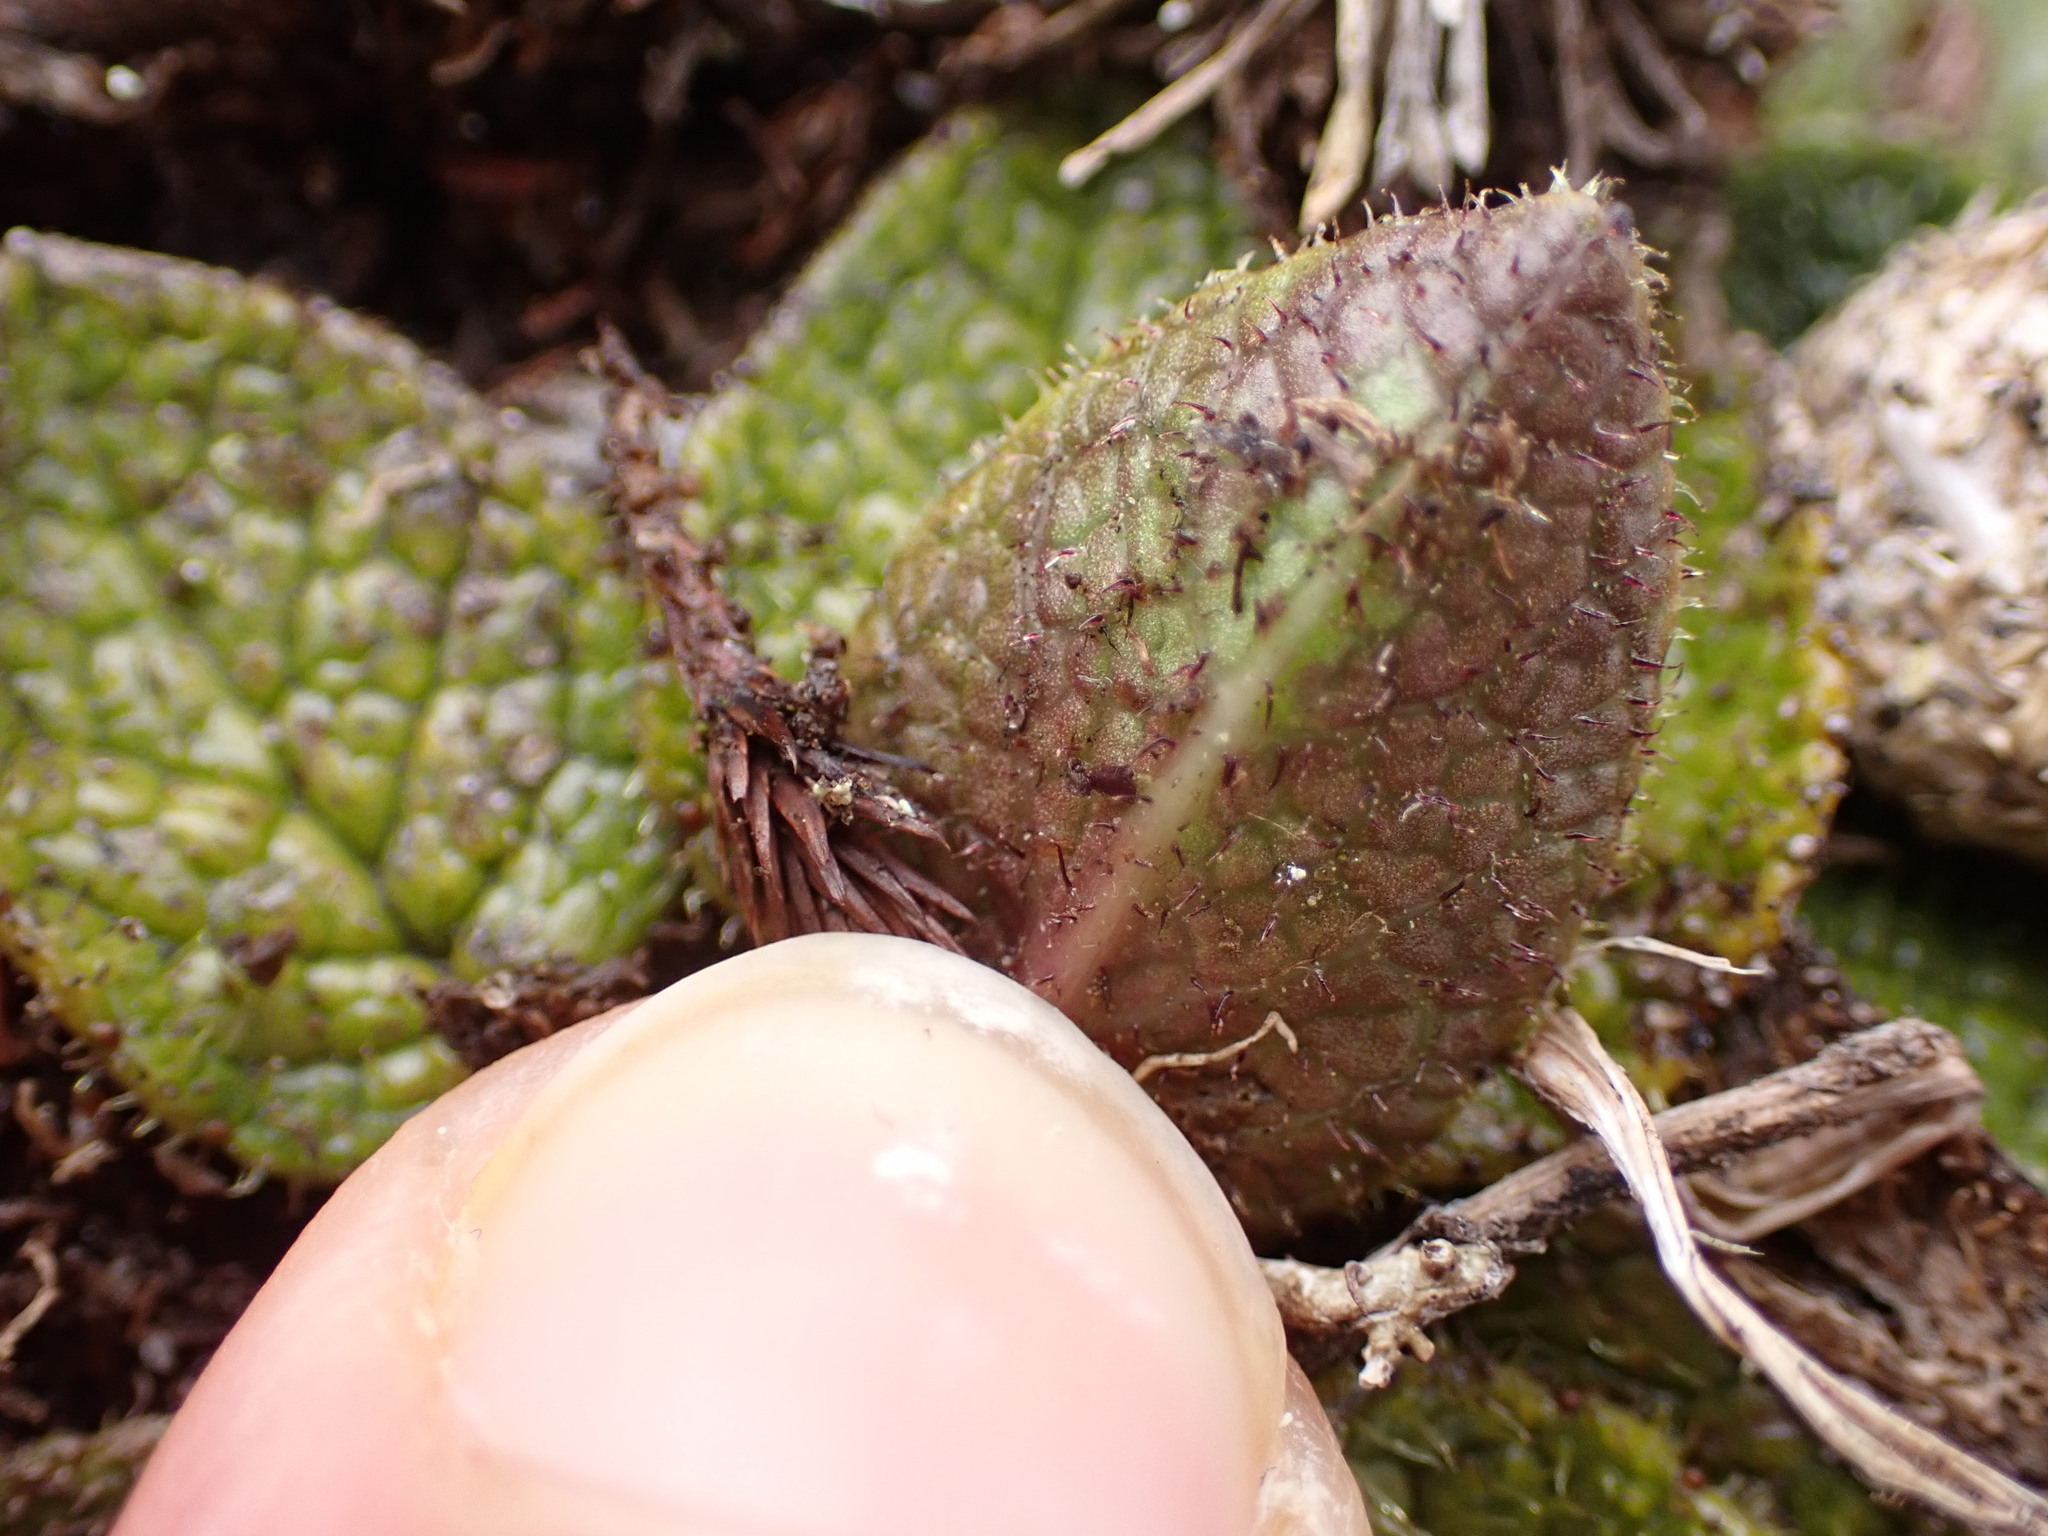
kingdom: Plantae
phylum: Tracheophyta
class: Magnoliopsida
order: Asterales
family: Asteraceae
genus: Brachyglottis
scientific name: Brachyglottis bellidioides
